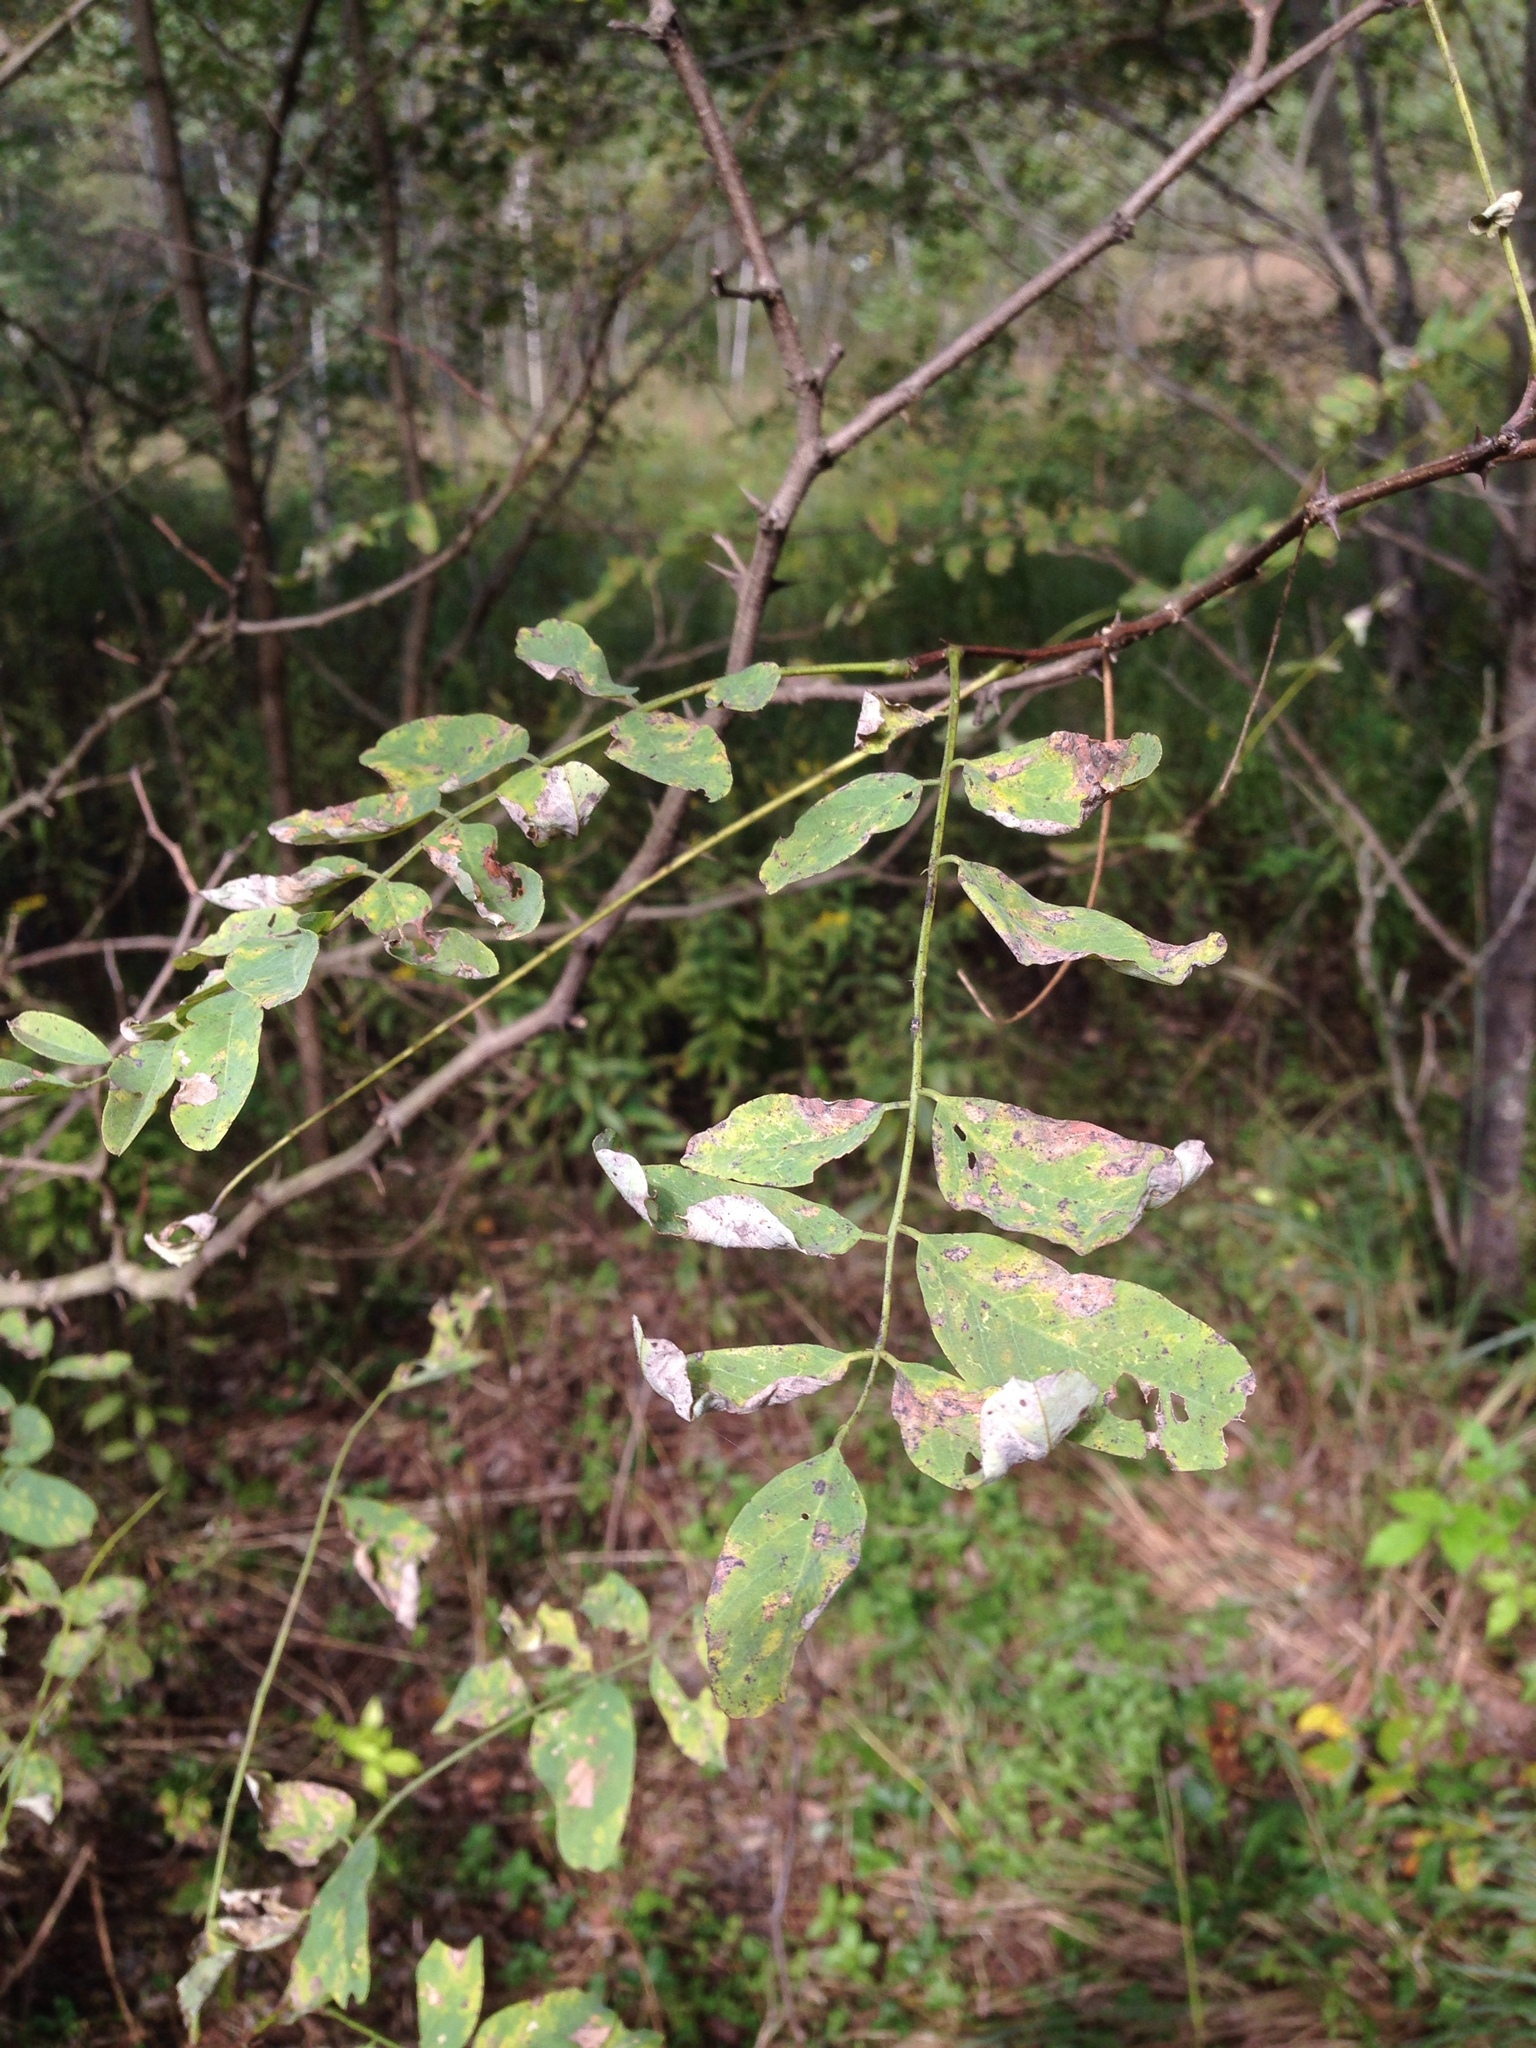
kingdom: Plantae
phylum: Tracheophyta
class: Magnoliopsida
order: Fabales
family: Fabaceae
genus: Robinia
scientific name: Robinia pseudoacacia
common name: Black locust
